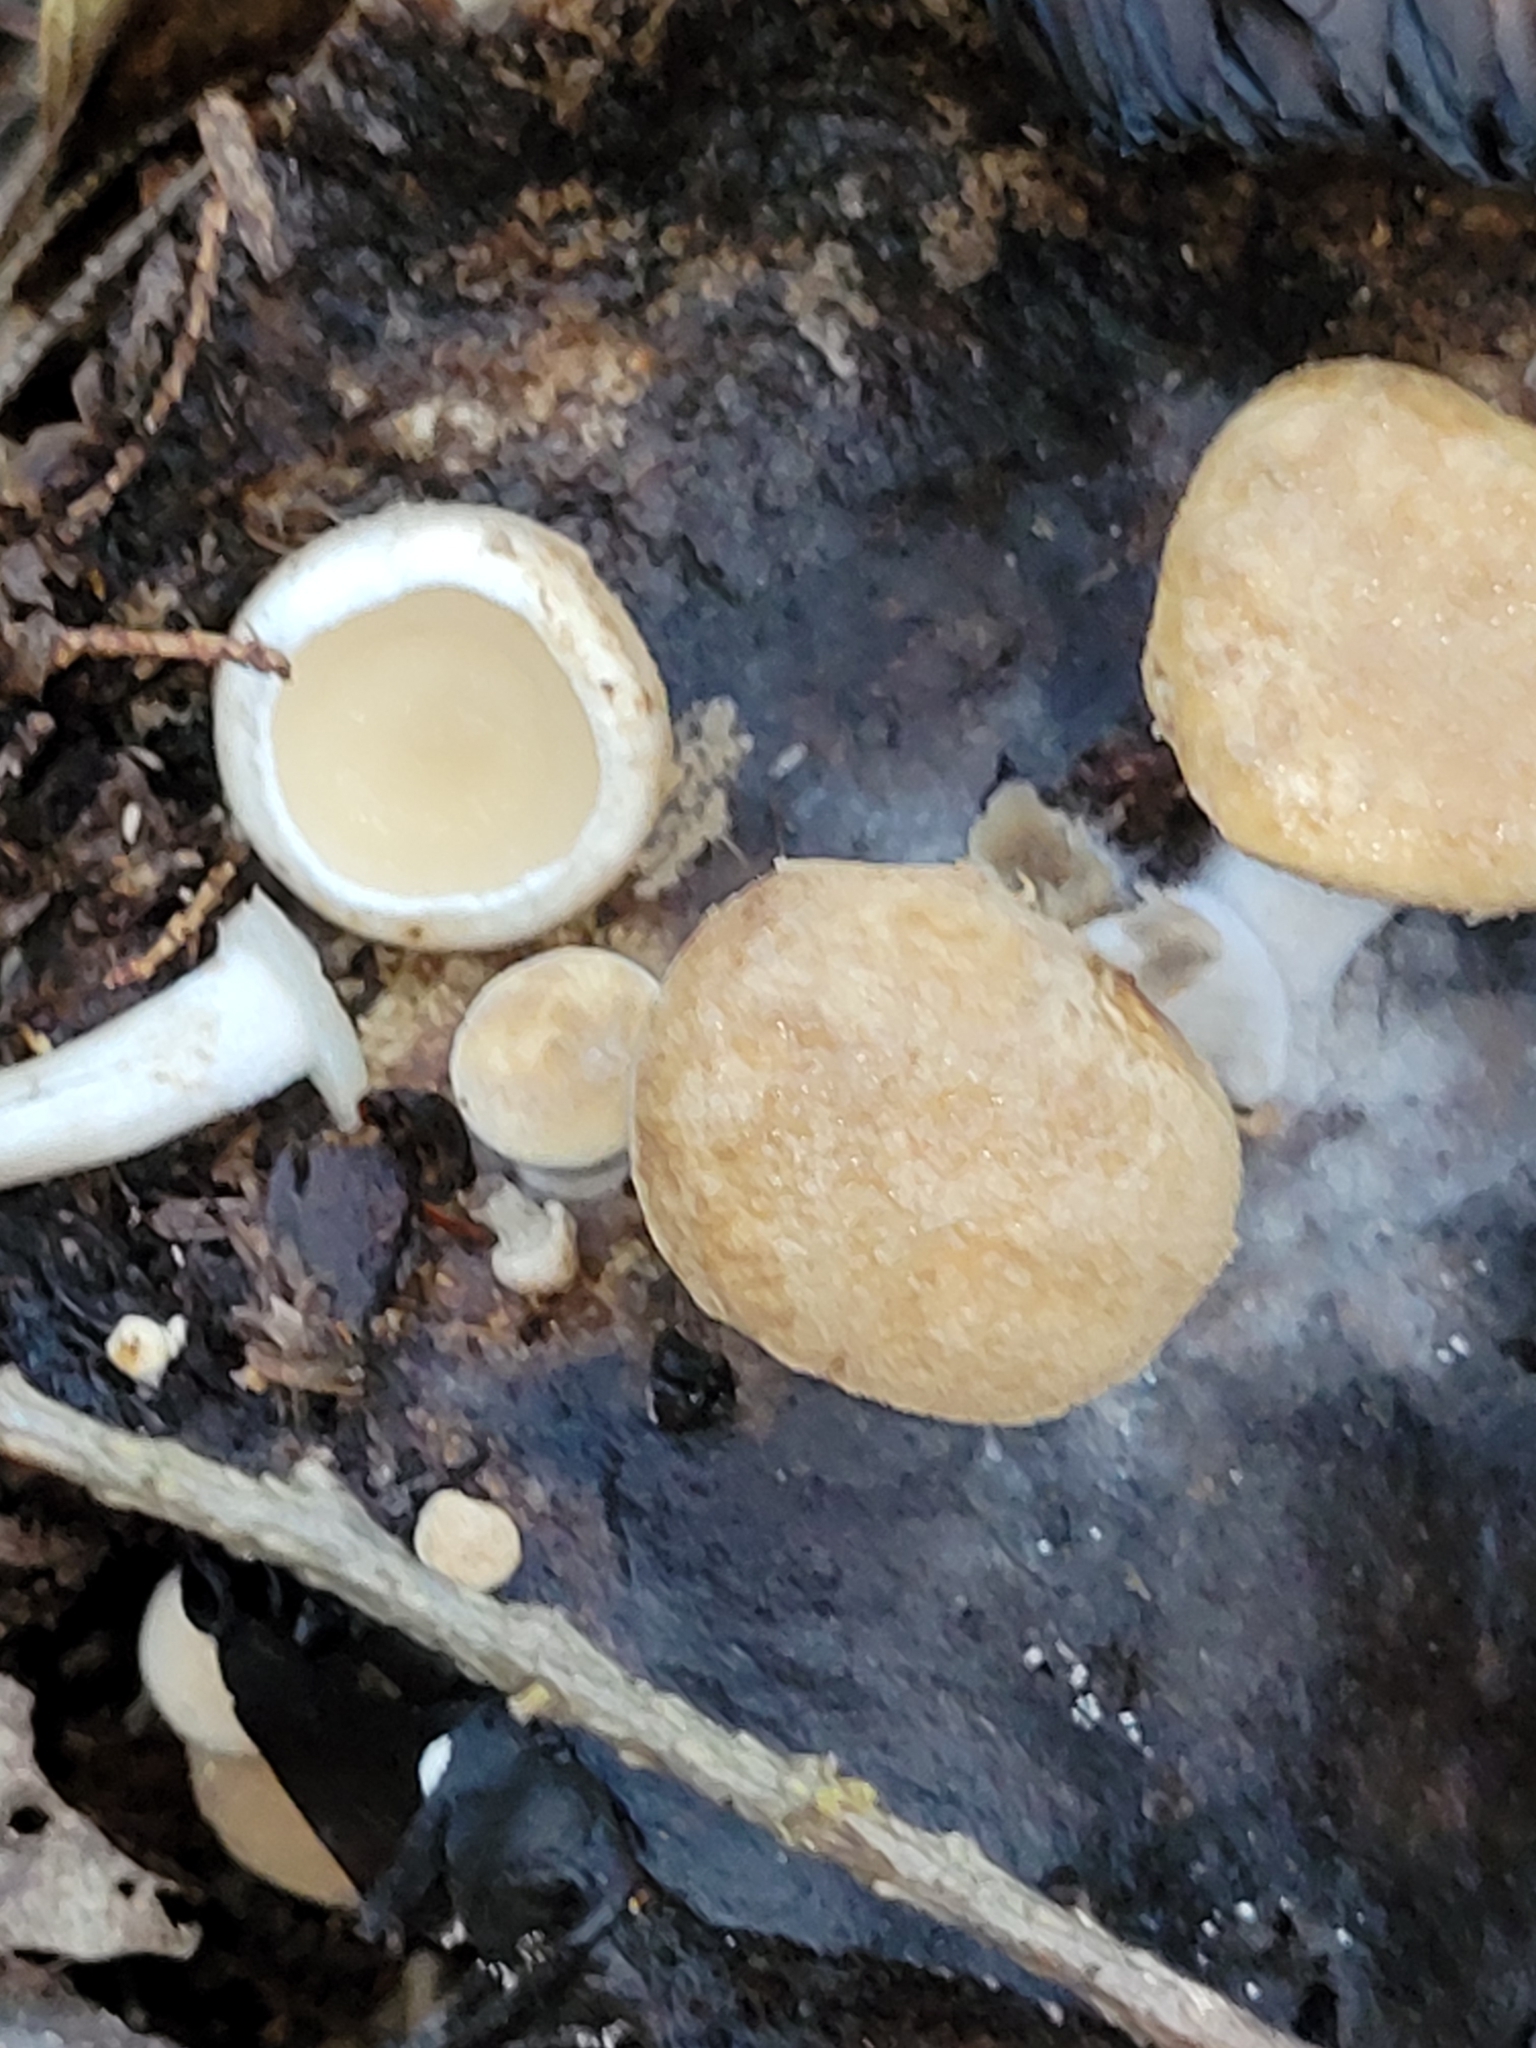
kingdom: Fungi
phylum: Basidiomycota
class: Agaricomycetes
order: Agaricales
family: Lyophyllaceae
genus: Asterophora
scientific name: Asterophora lycoperdoides
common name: Pick-a-back toadstool
